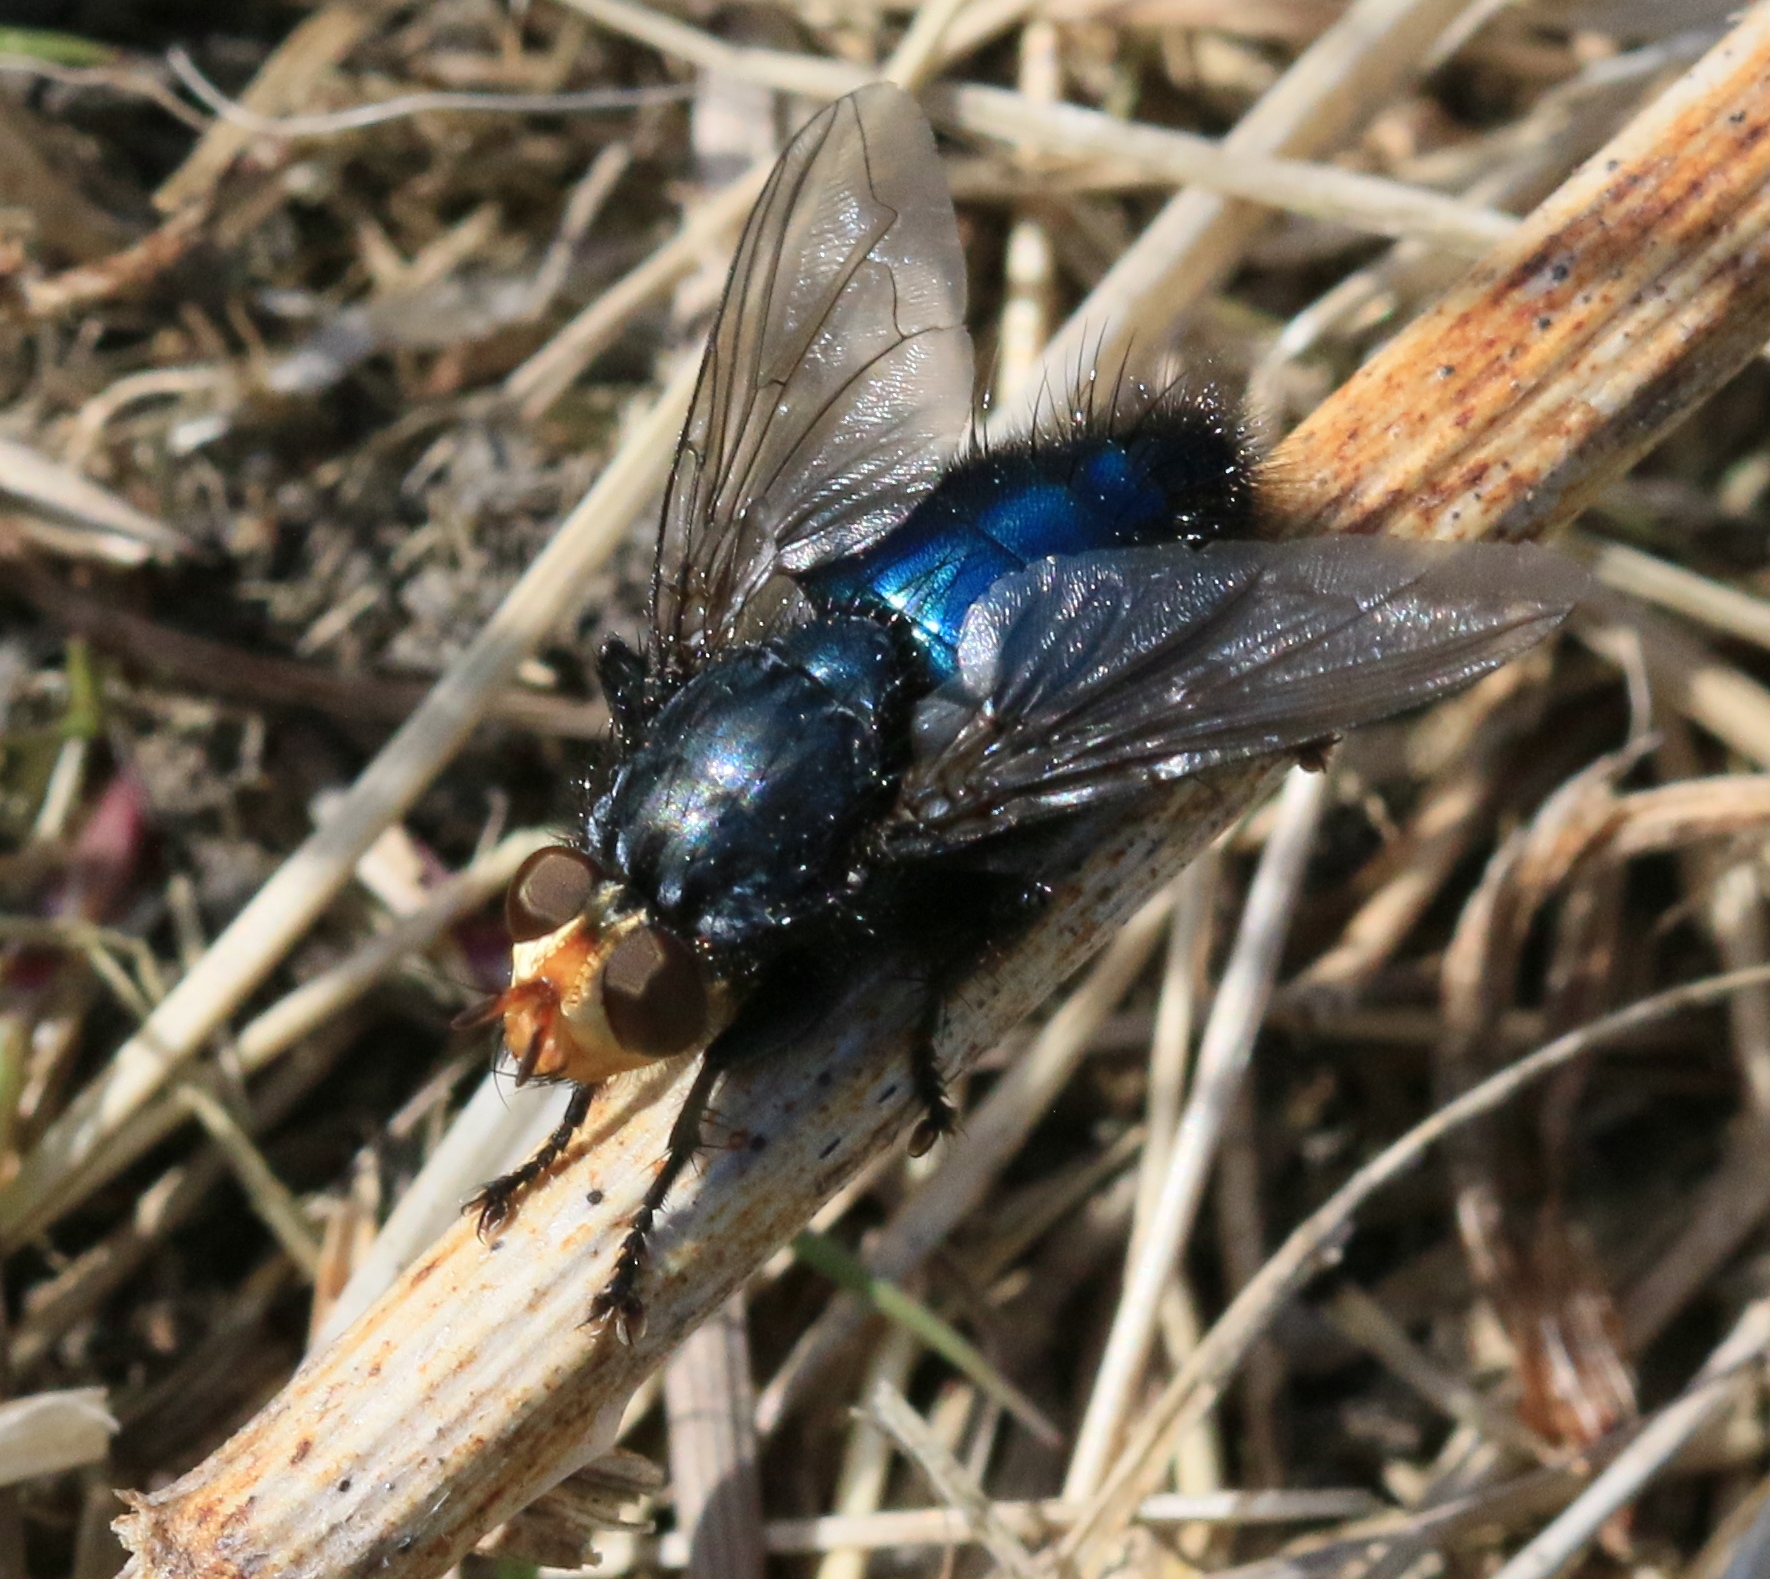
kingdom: Animalia
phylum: Arthropoda
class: Insecta
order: Diptera
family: Calliphoridae
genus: Cynomya
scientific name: Cynomya mortuorum
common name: Bluebottle blow fly
